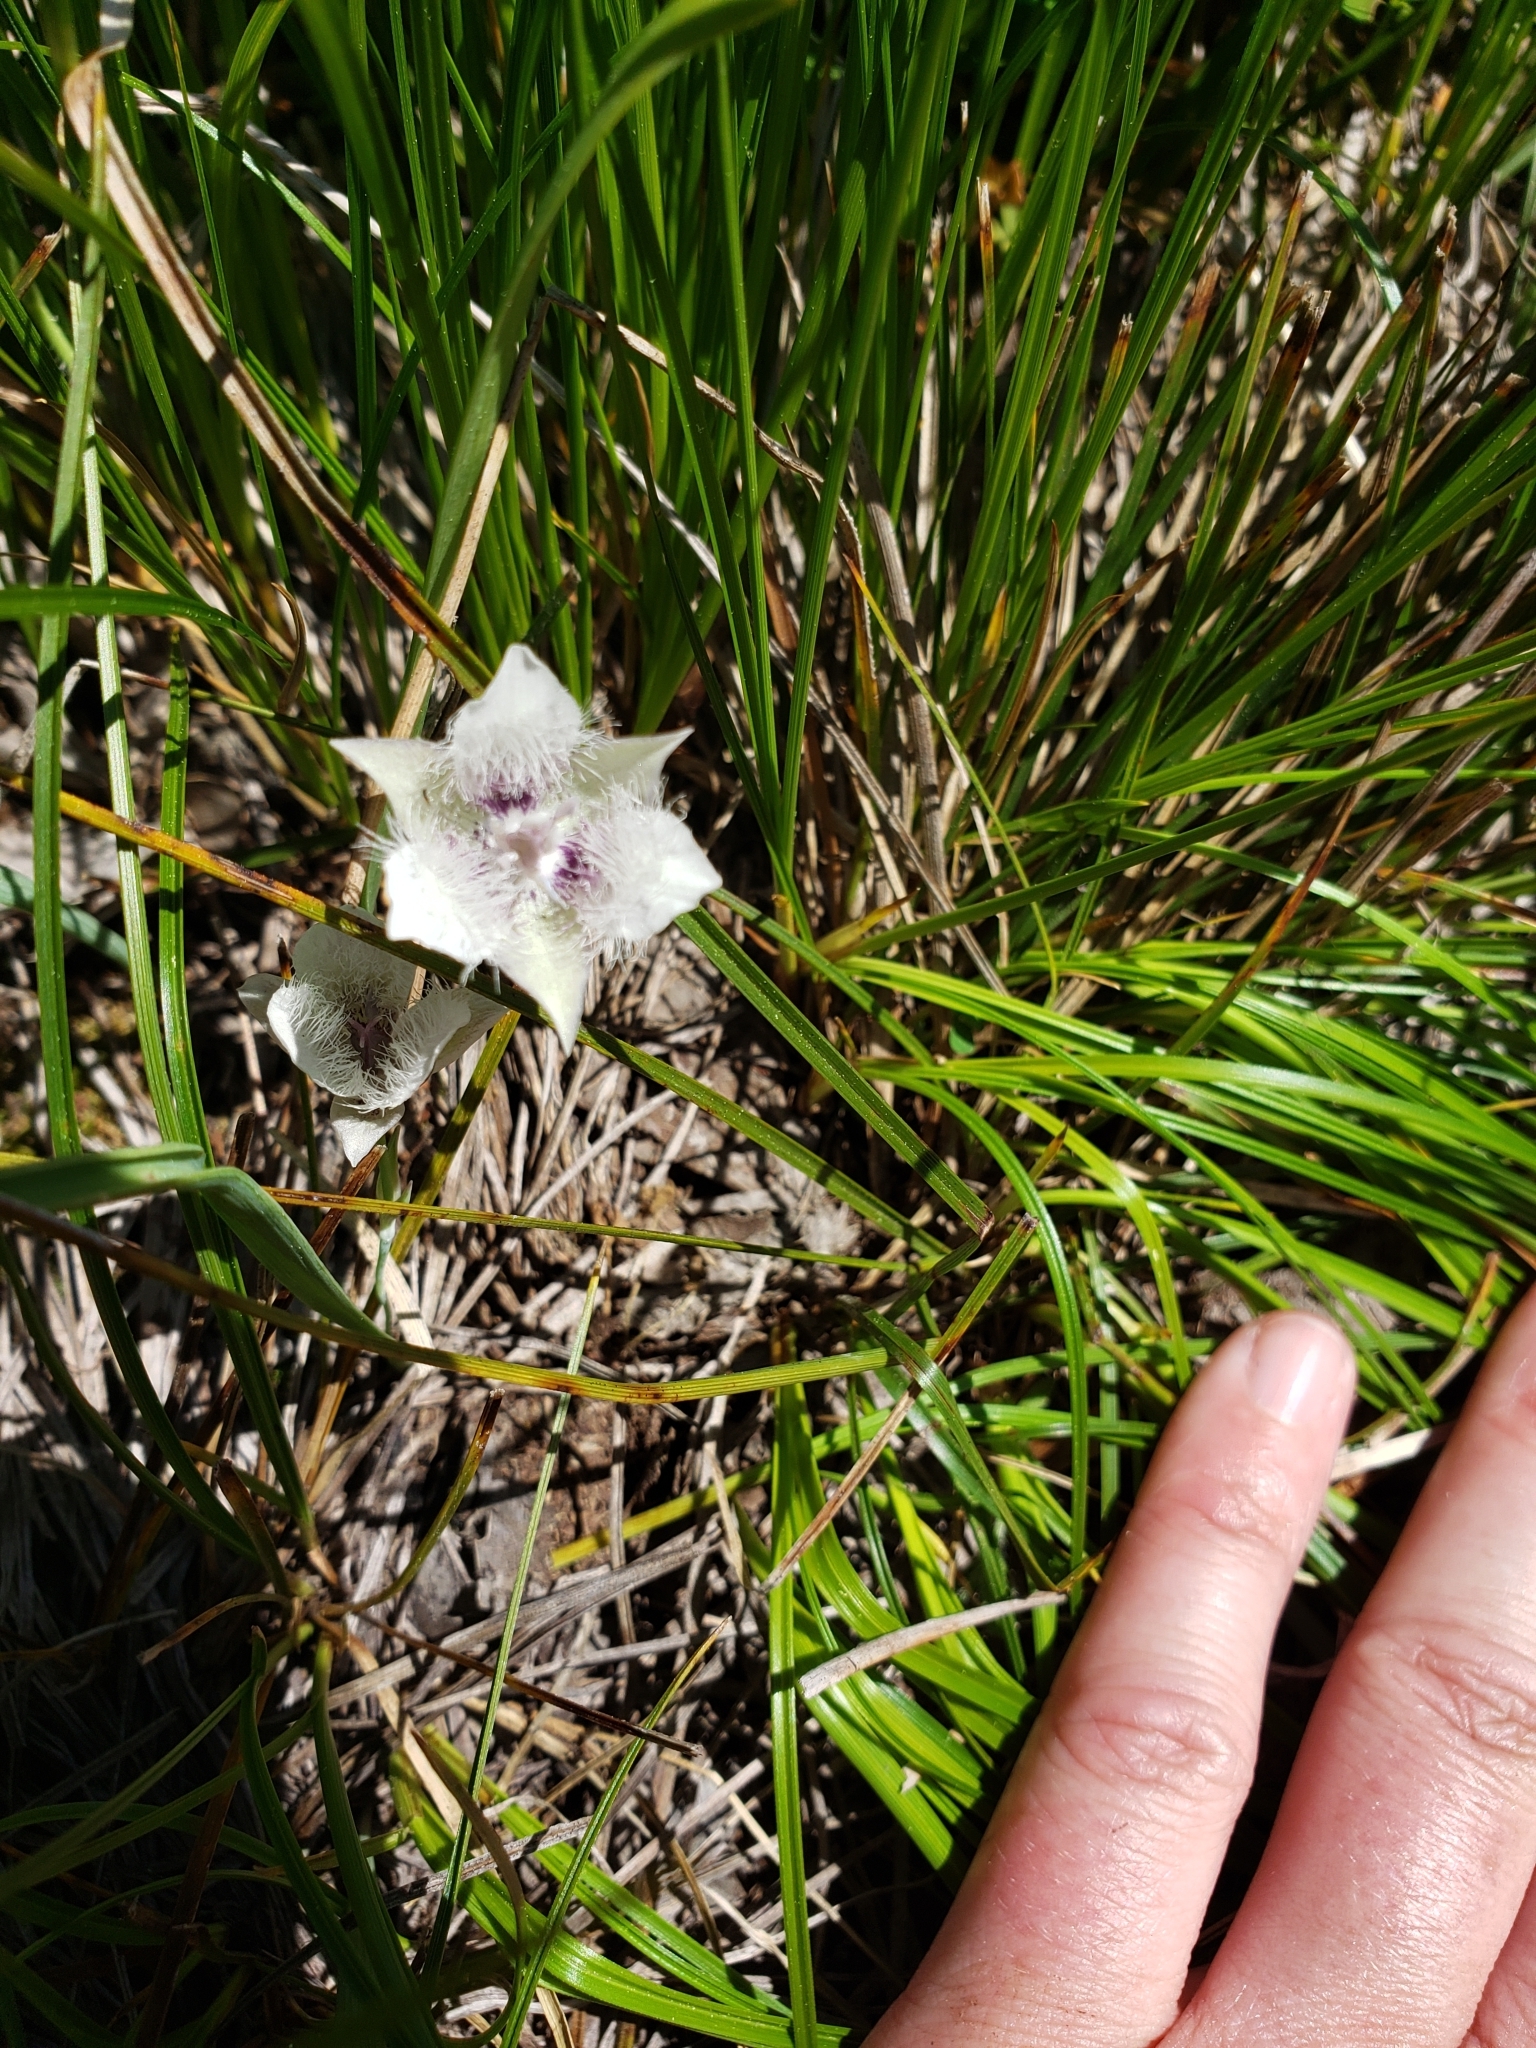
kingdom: Plantae
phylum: Tracheophyta
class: Liliopsida
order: Liliales
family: Liliaceae
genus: Calochortus
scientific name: Calochortus elegans
